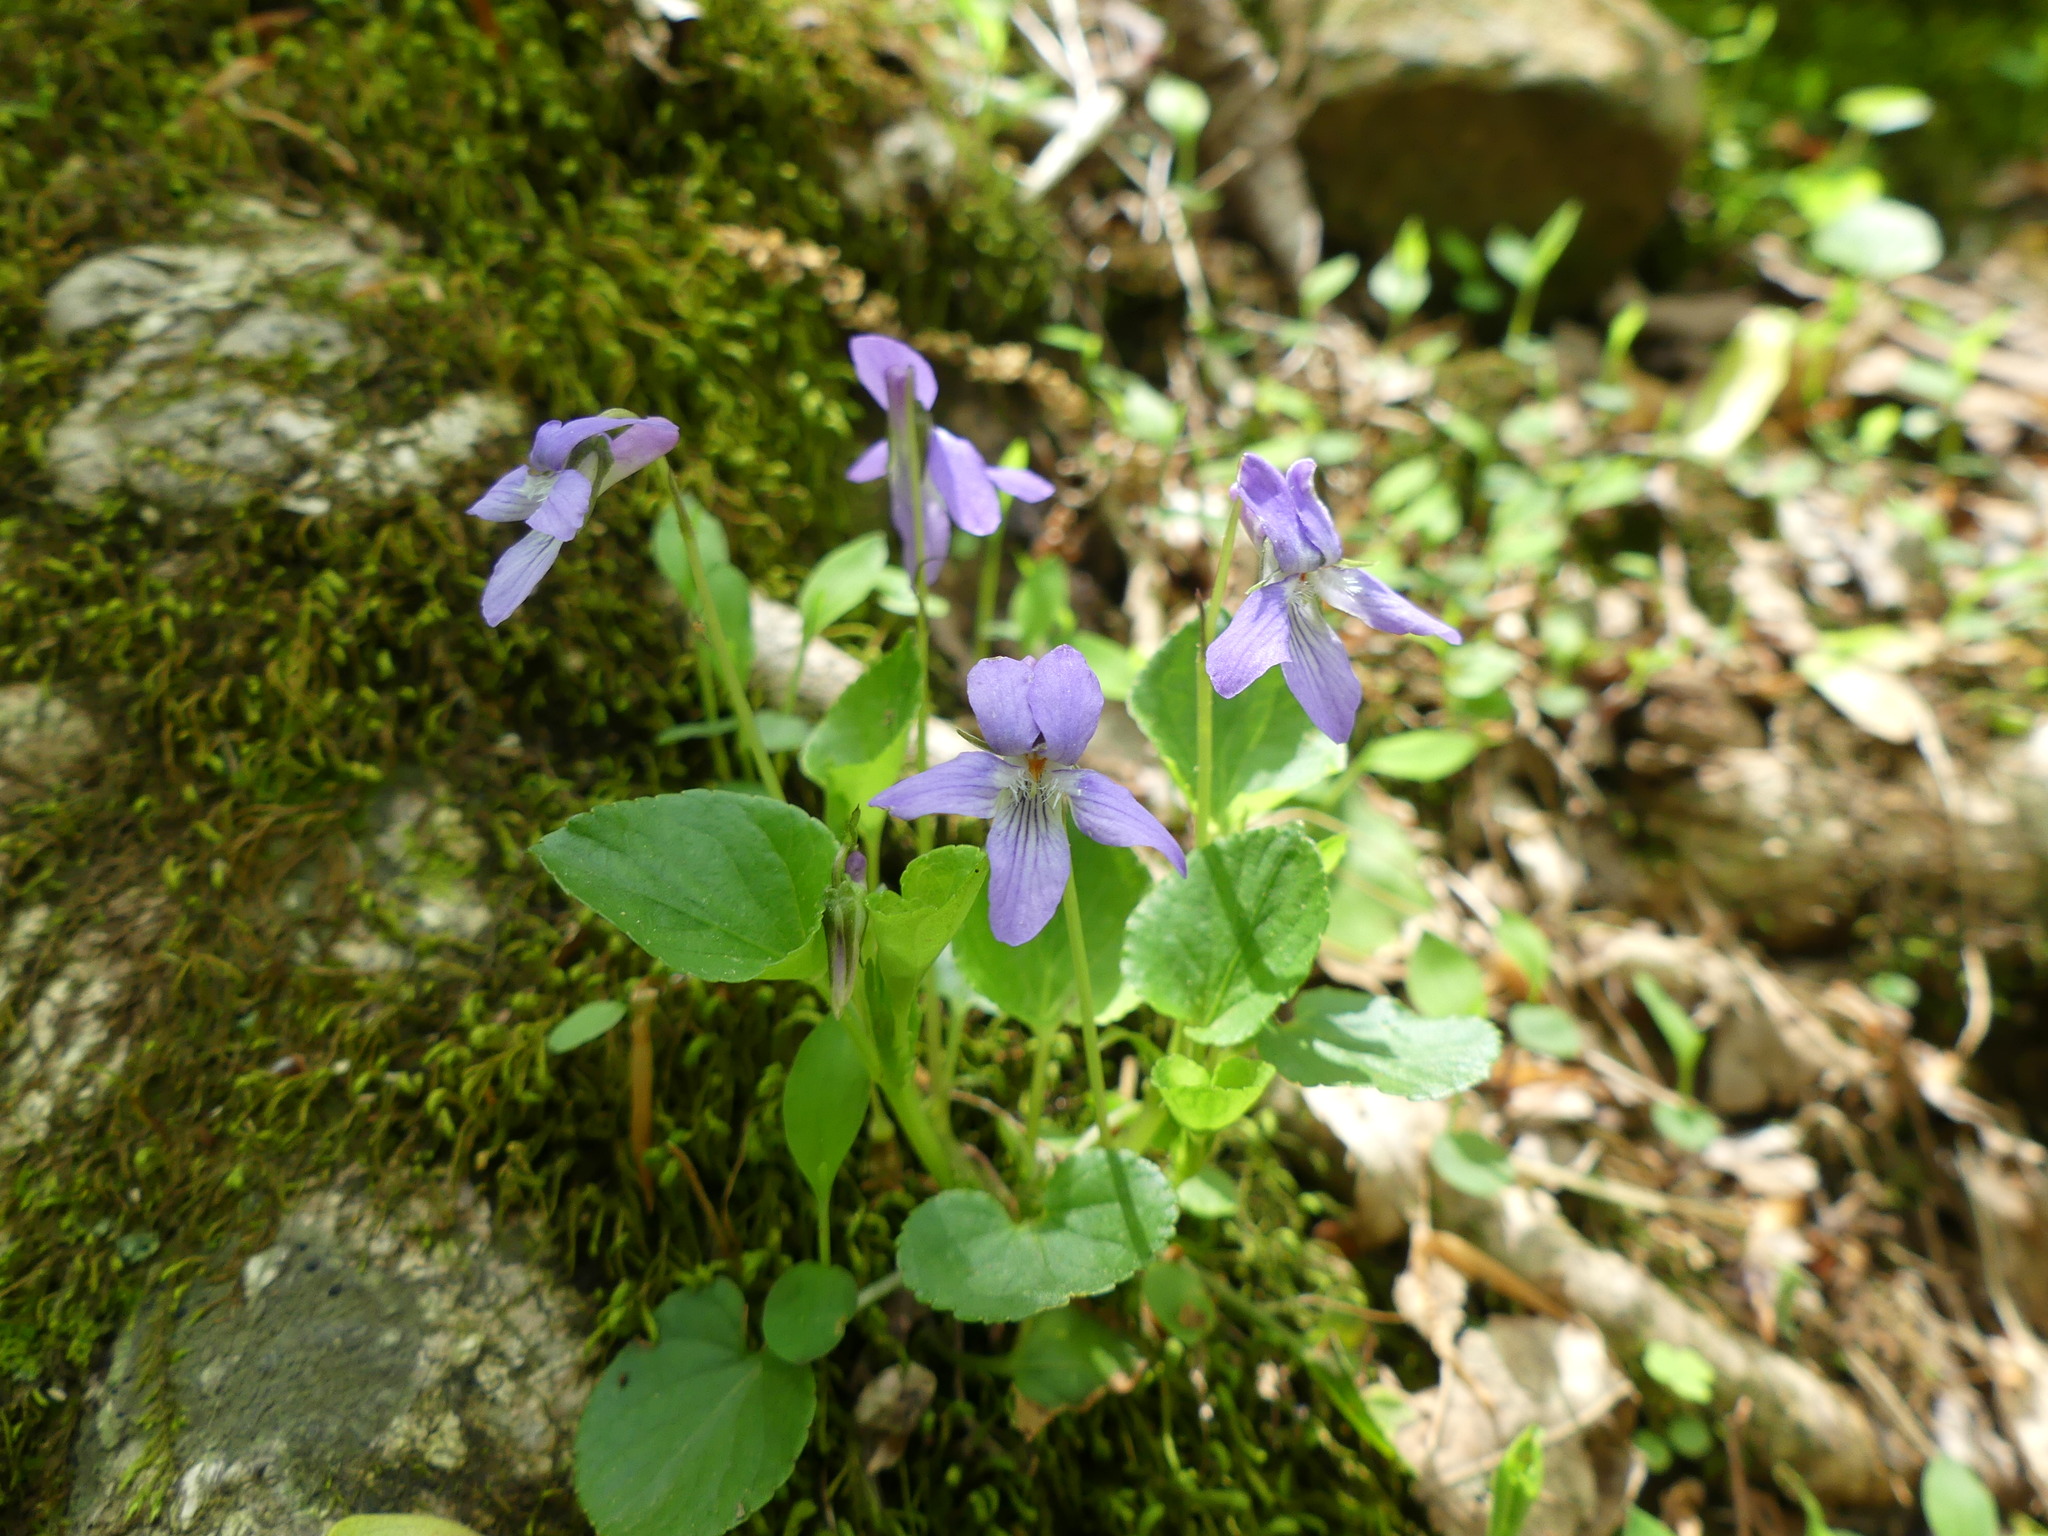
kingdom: Plantae
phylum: Tracheophyta
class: Magnoliopsida
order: Malpighiales
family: Violaceae
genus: Viola
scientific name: Viola labradorica
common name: Labrador violet
